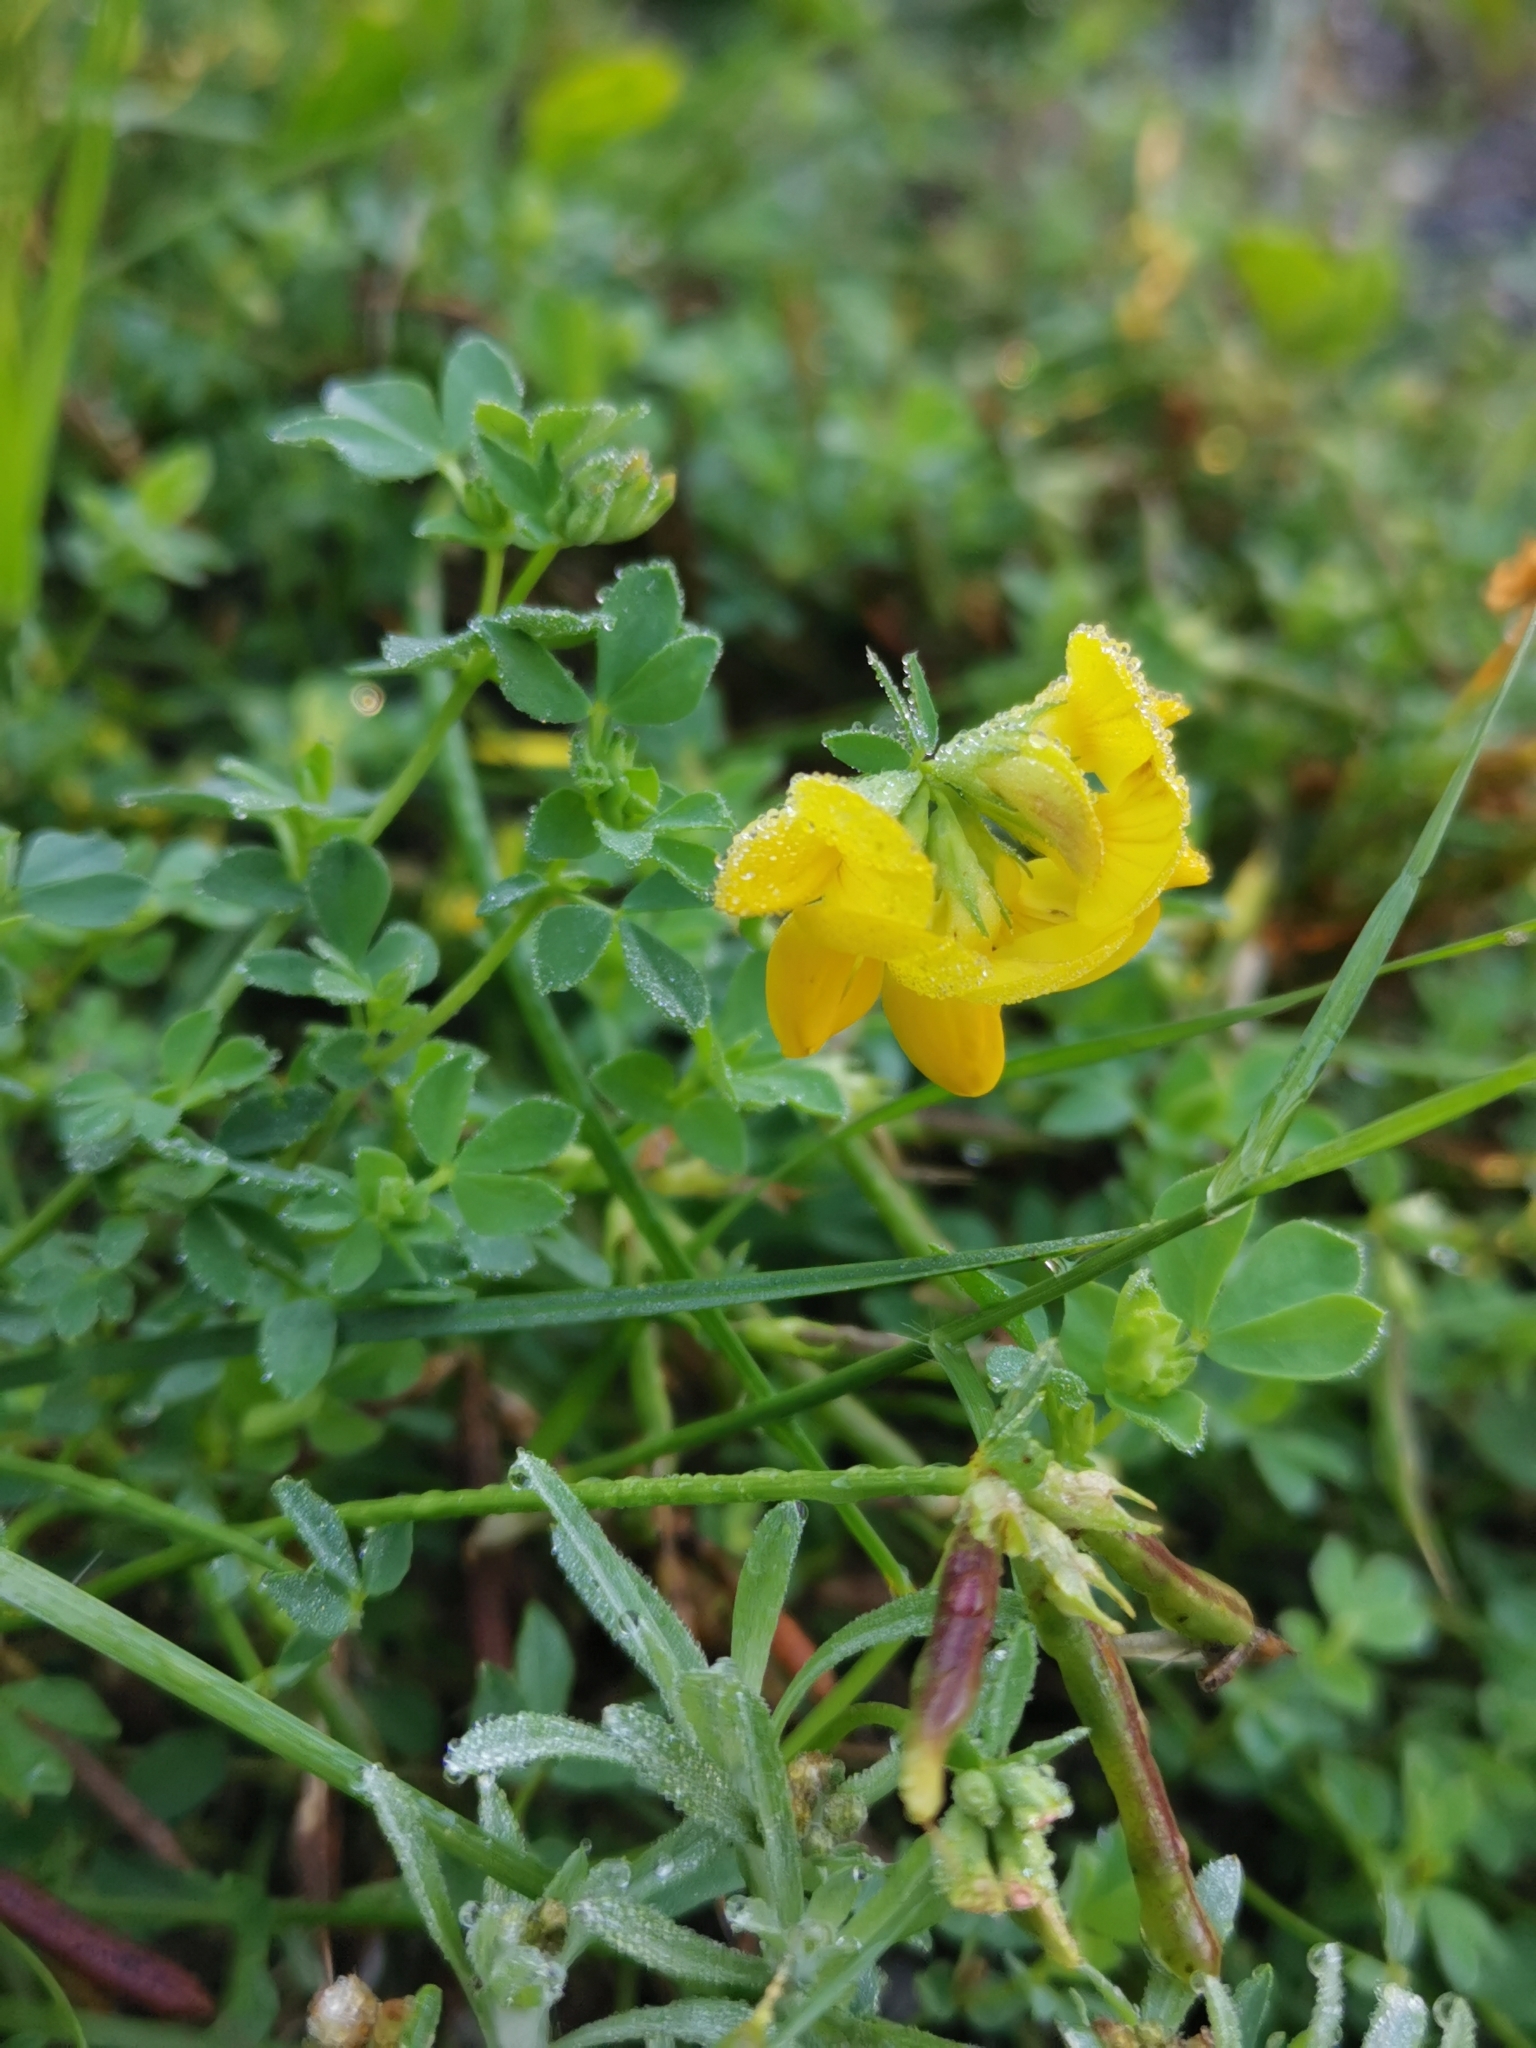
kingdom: Plantae
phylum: Tracheophyta
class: Magnoliopsida
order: Fabales
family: Fabaceae
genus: Lotus
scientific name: Lotus corniculatus
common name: Common bird's-foot-trefoil
